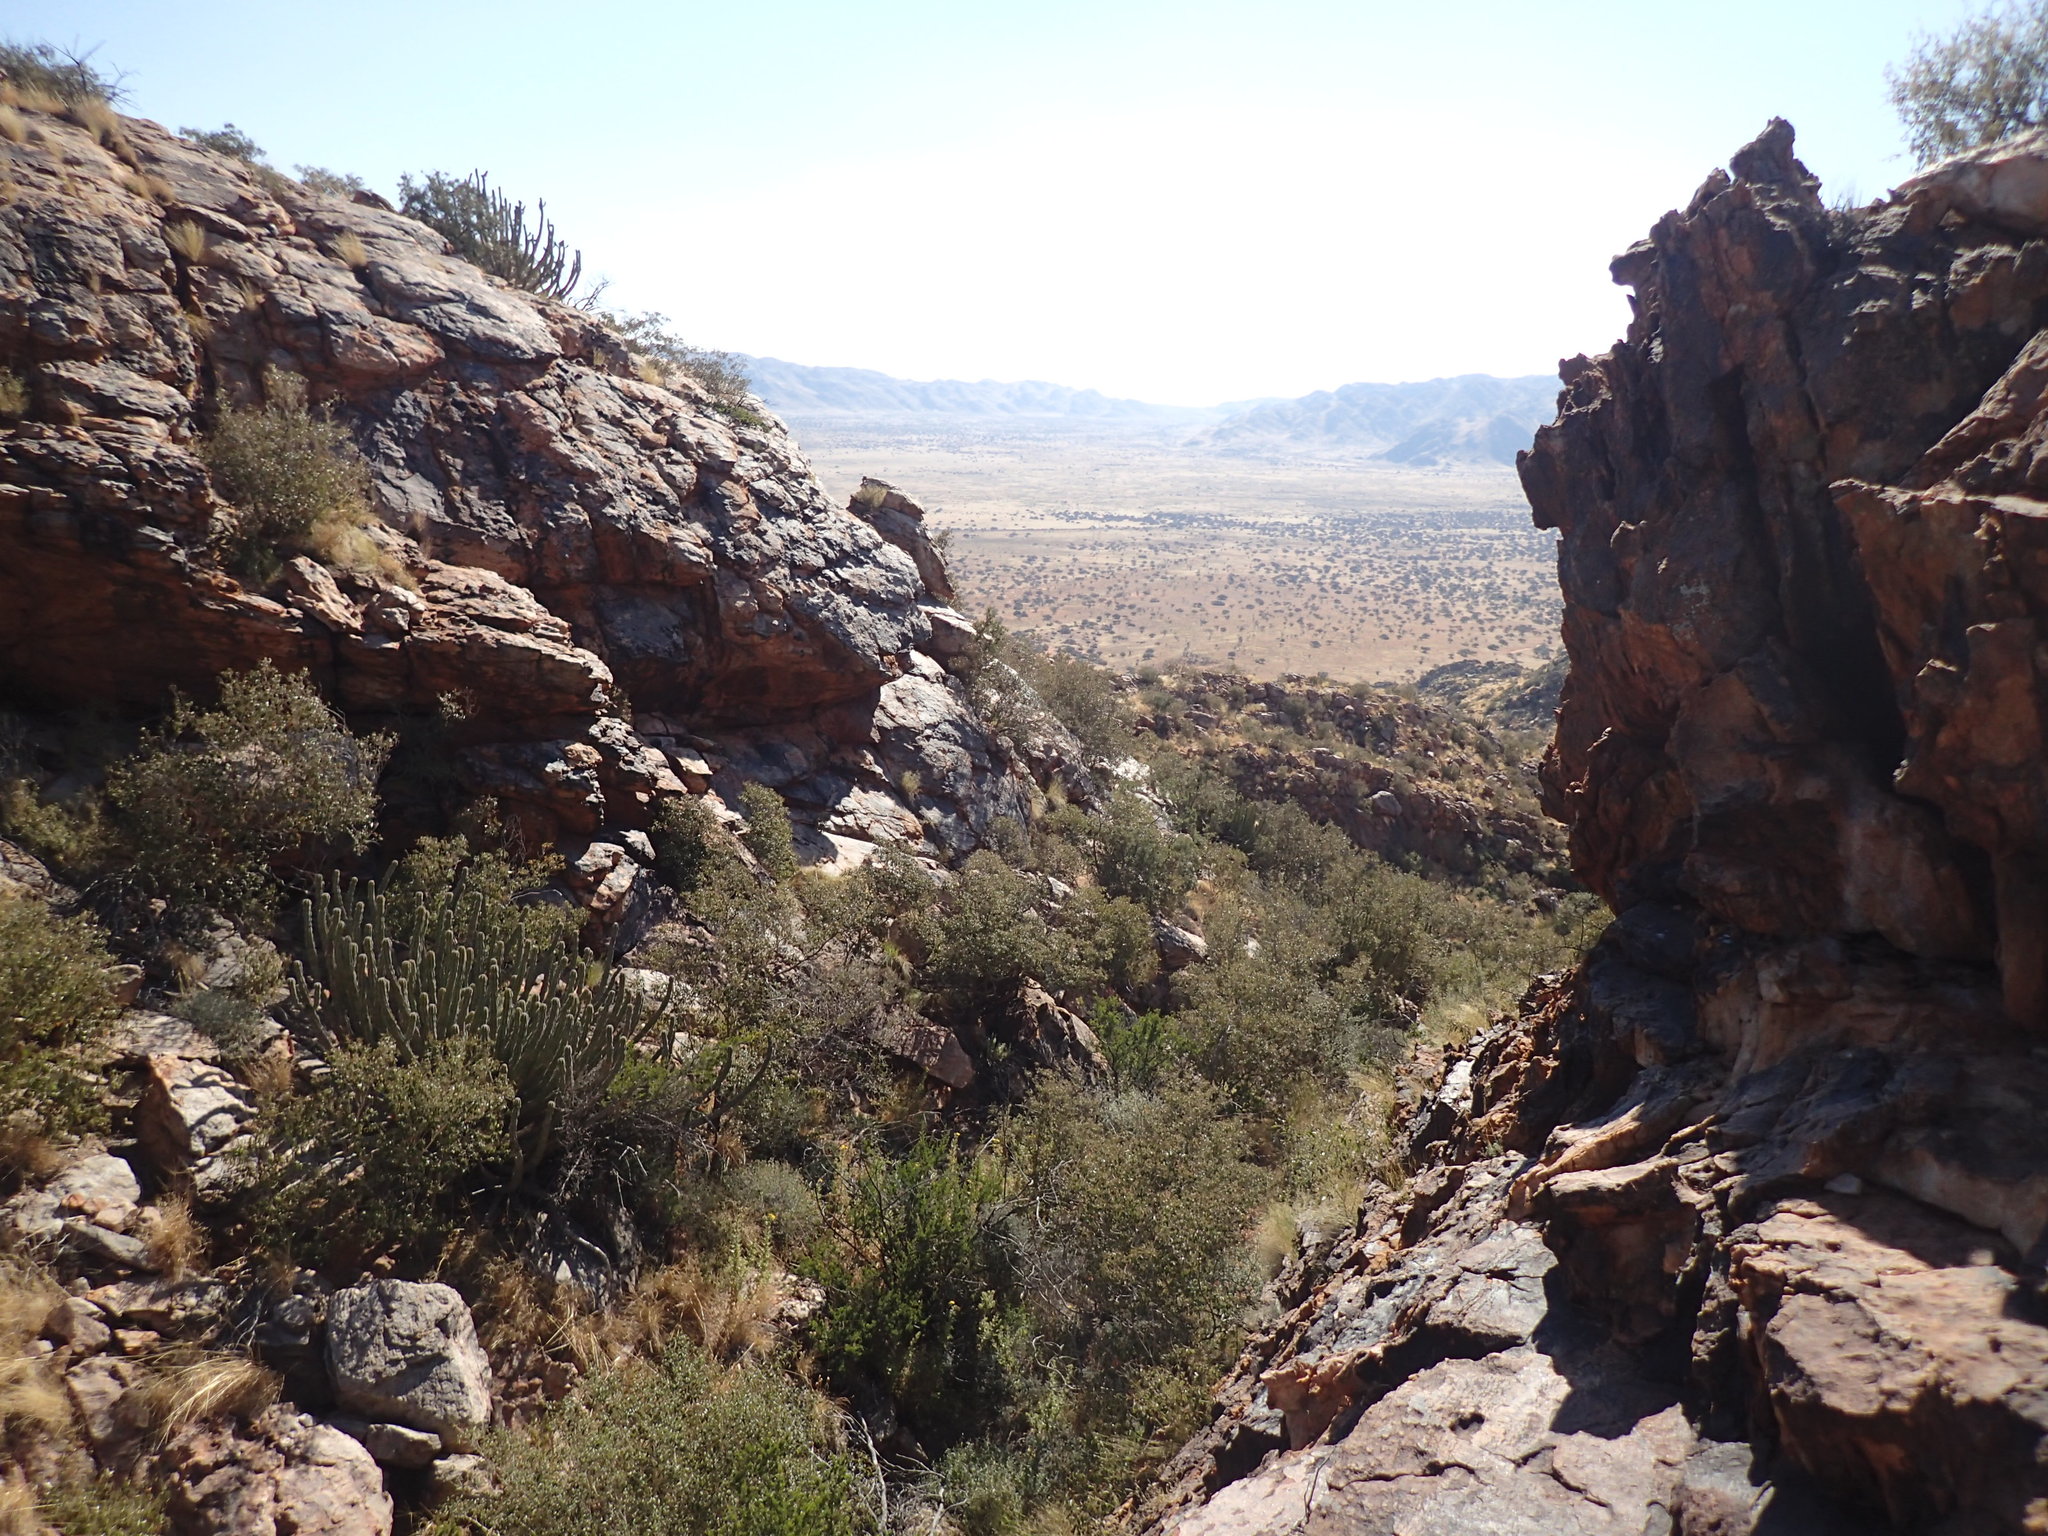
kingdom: Plantae
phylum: Tracheophyta
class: Magnoliopsida
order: Malpighiales
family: Euphorbiaceae
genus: Euphorbia
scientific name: Euphorbia avasmontana
